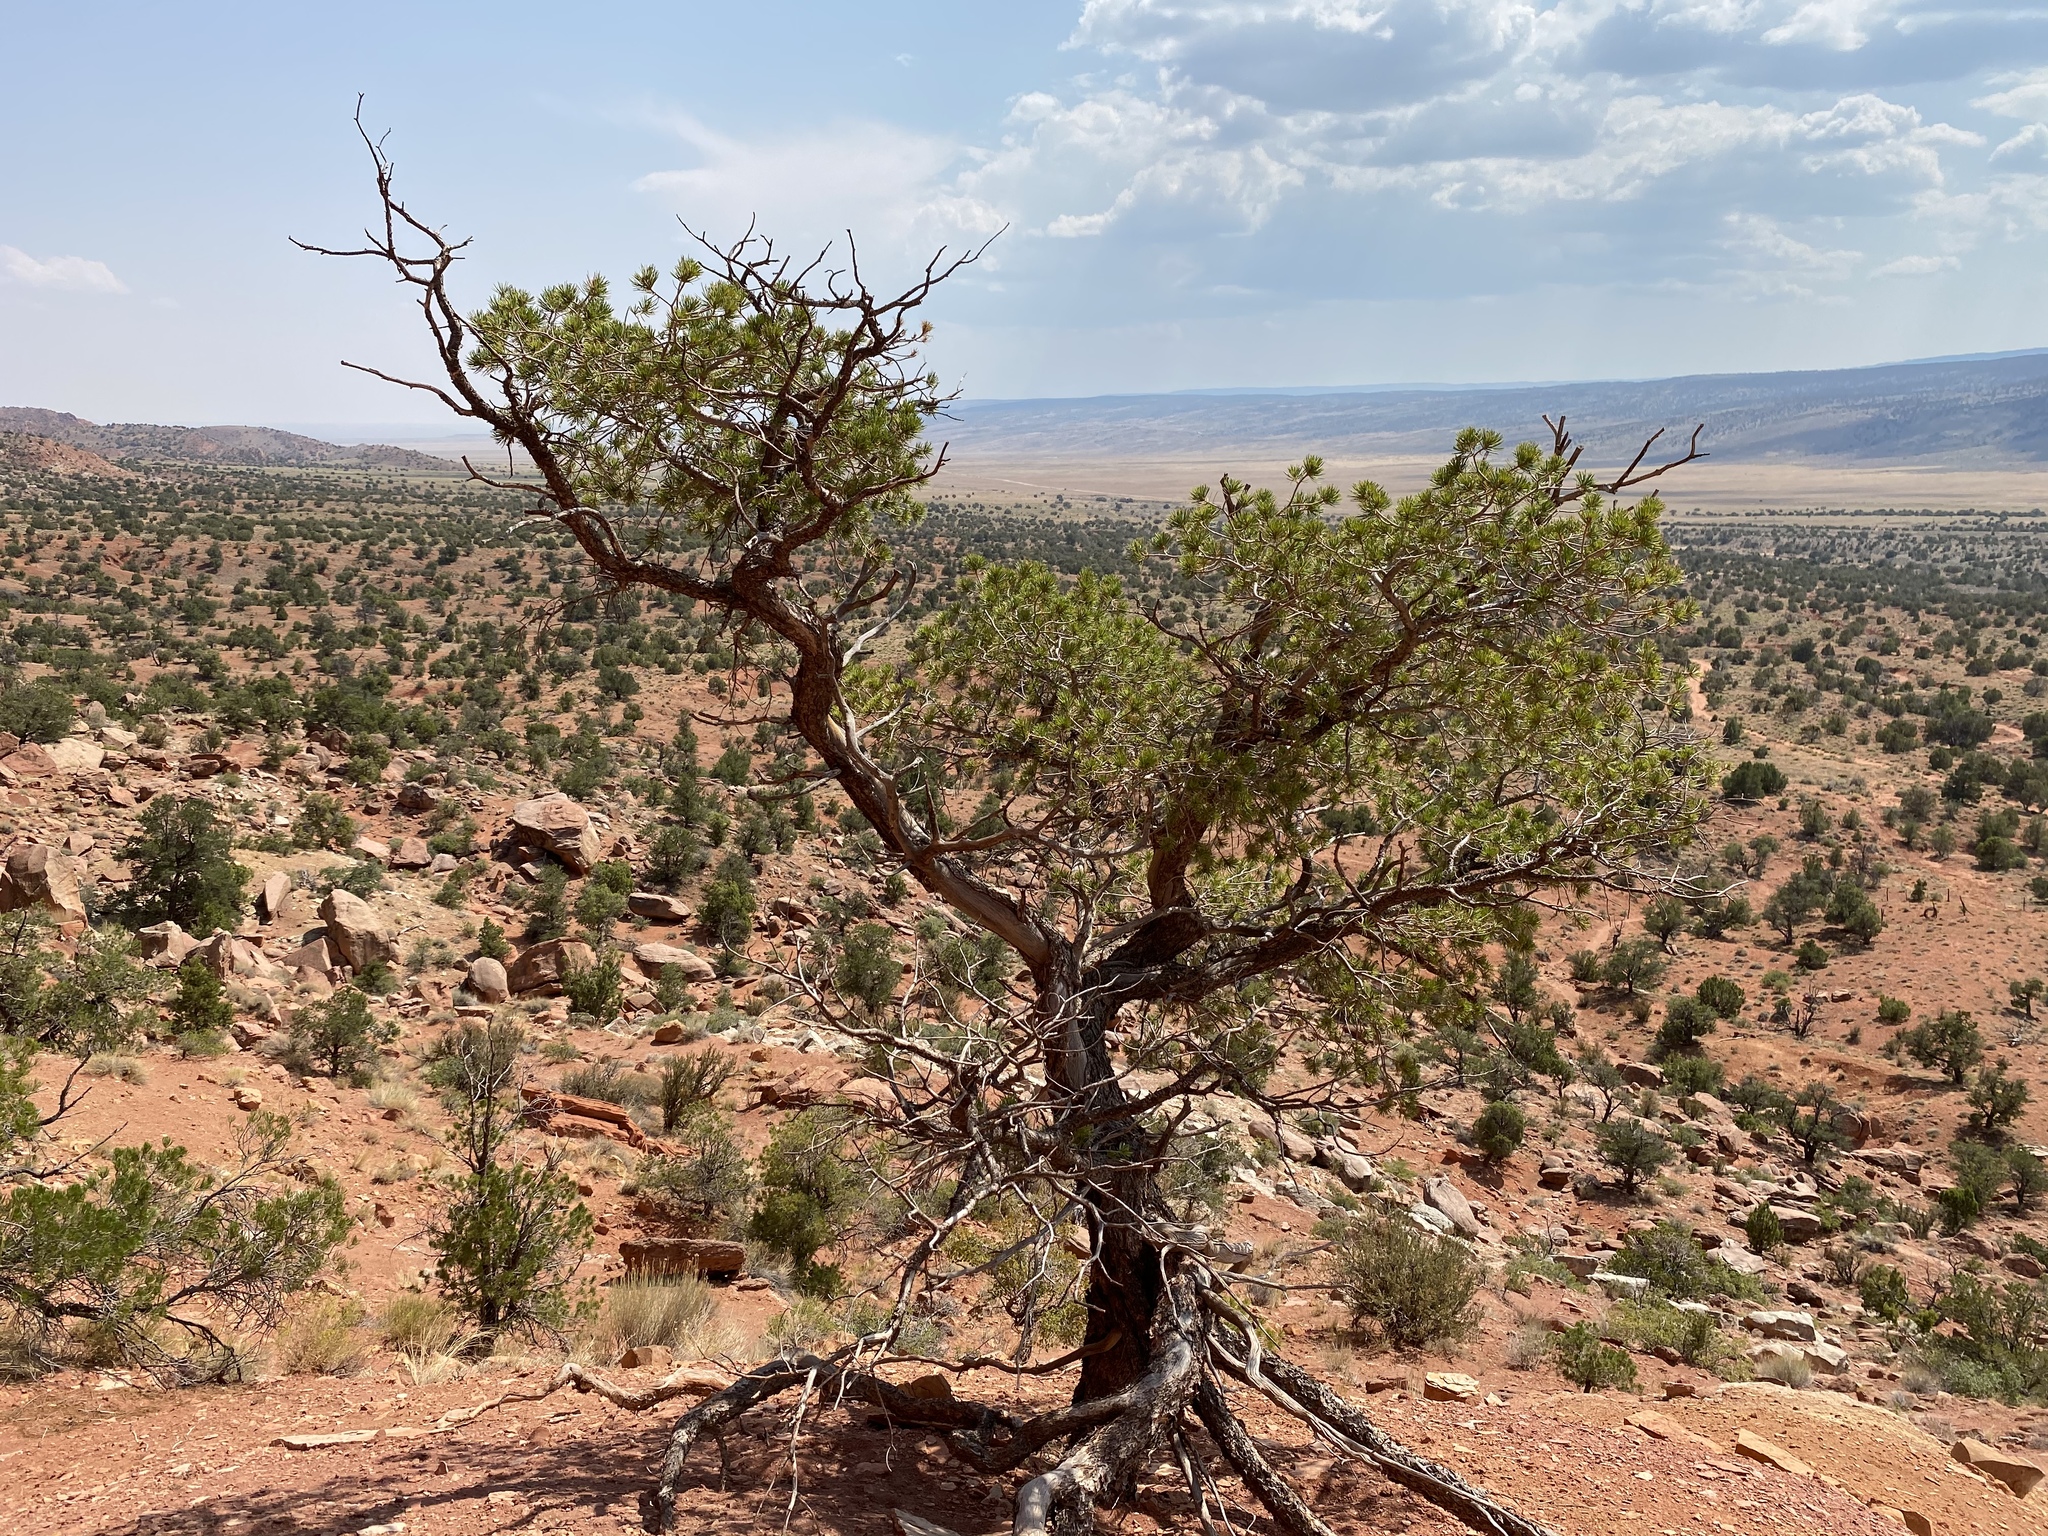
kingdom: Plantae
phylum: Tracheophyta
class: Pinopsida
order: Pinales
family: Pinaceae
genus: Pinus
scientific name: Pinus edulis
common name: Colorado pinyon
